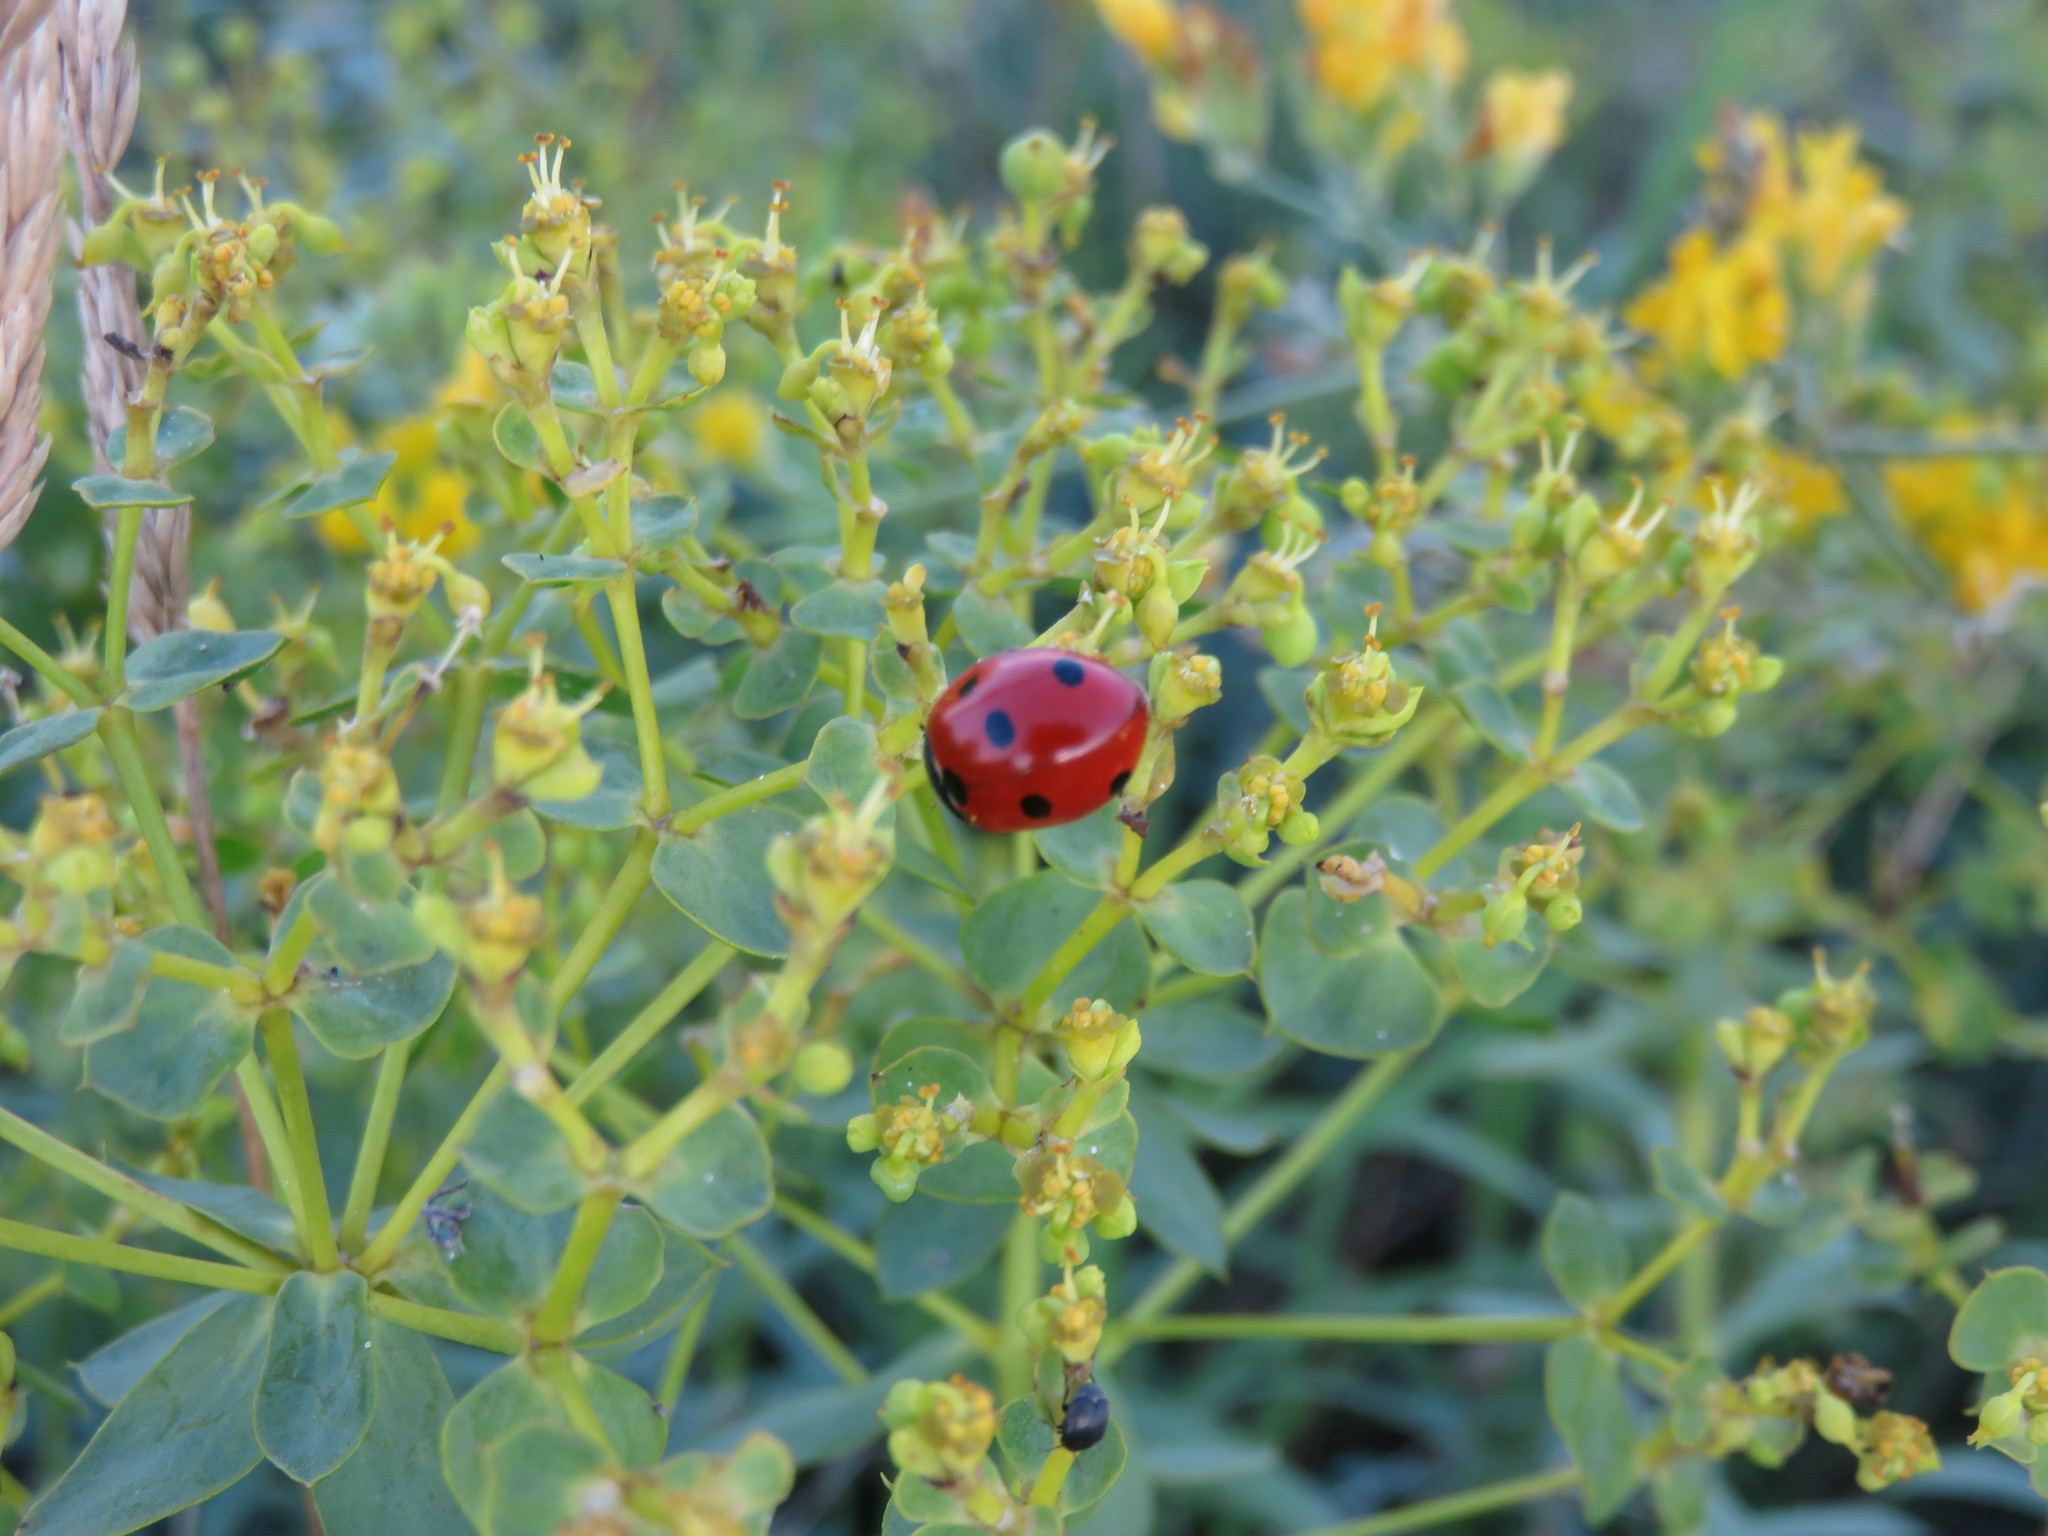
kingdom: Animalia
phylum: Arthropoda
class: Insecta
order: Coleoptera
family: Coccinellidae
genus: Coccinella
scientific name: Coccinella septempunctata
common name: Sevenspotted lady beetle
